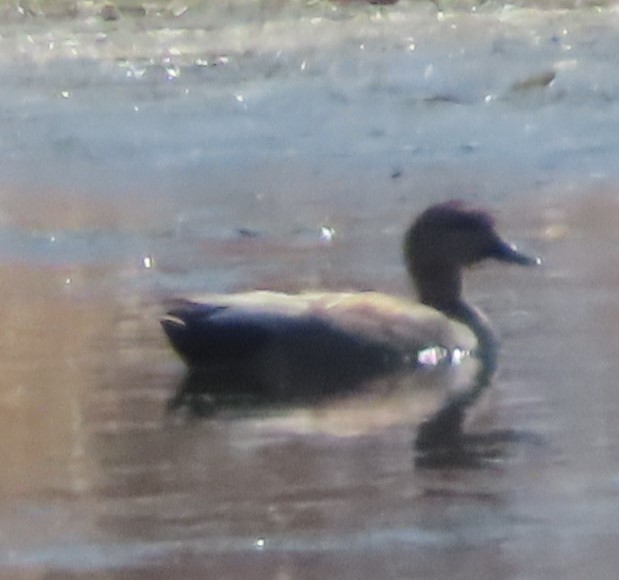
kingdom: Animalia
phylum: Chordata
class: Aves
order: Anseriformes
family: Anatidae
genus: Mareca
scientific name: Mareca strepera
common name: Gadwall
